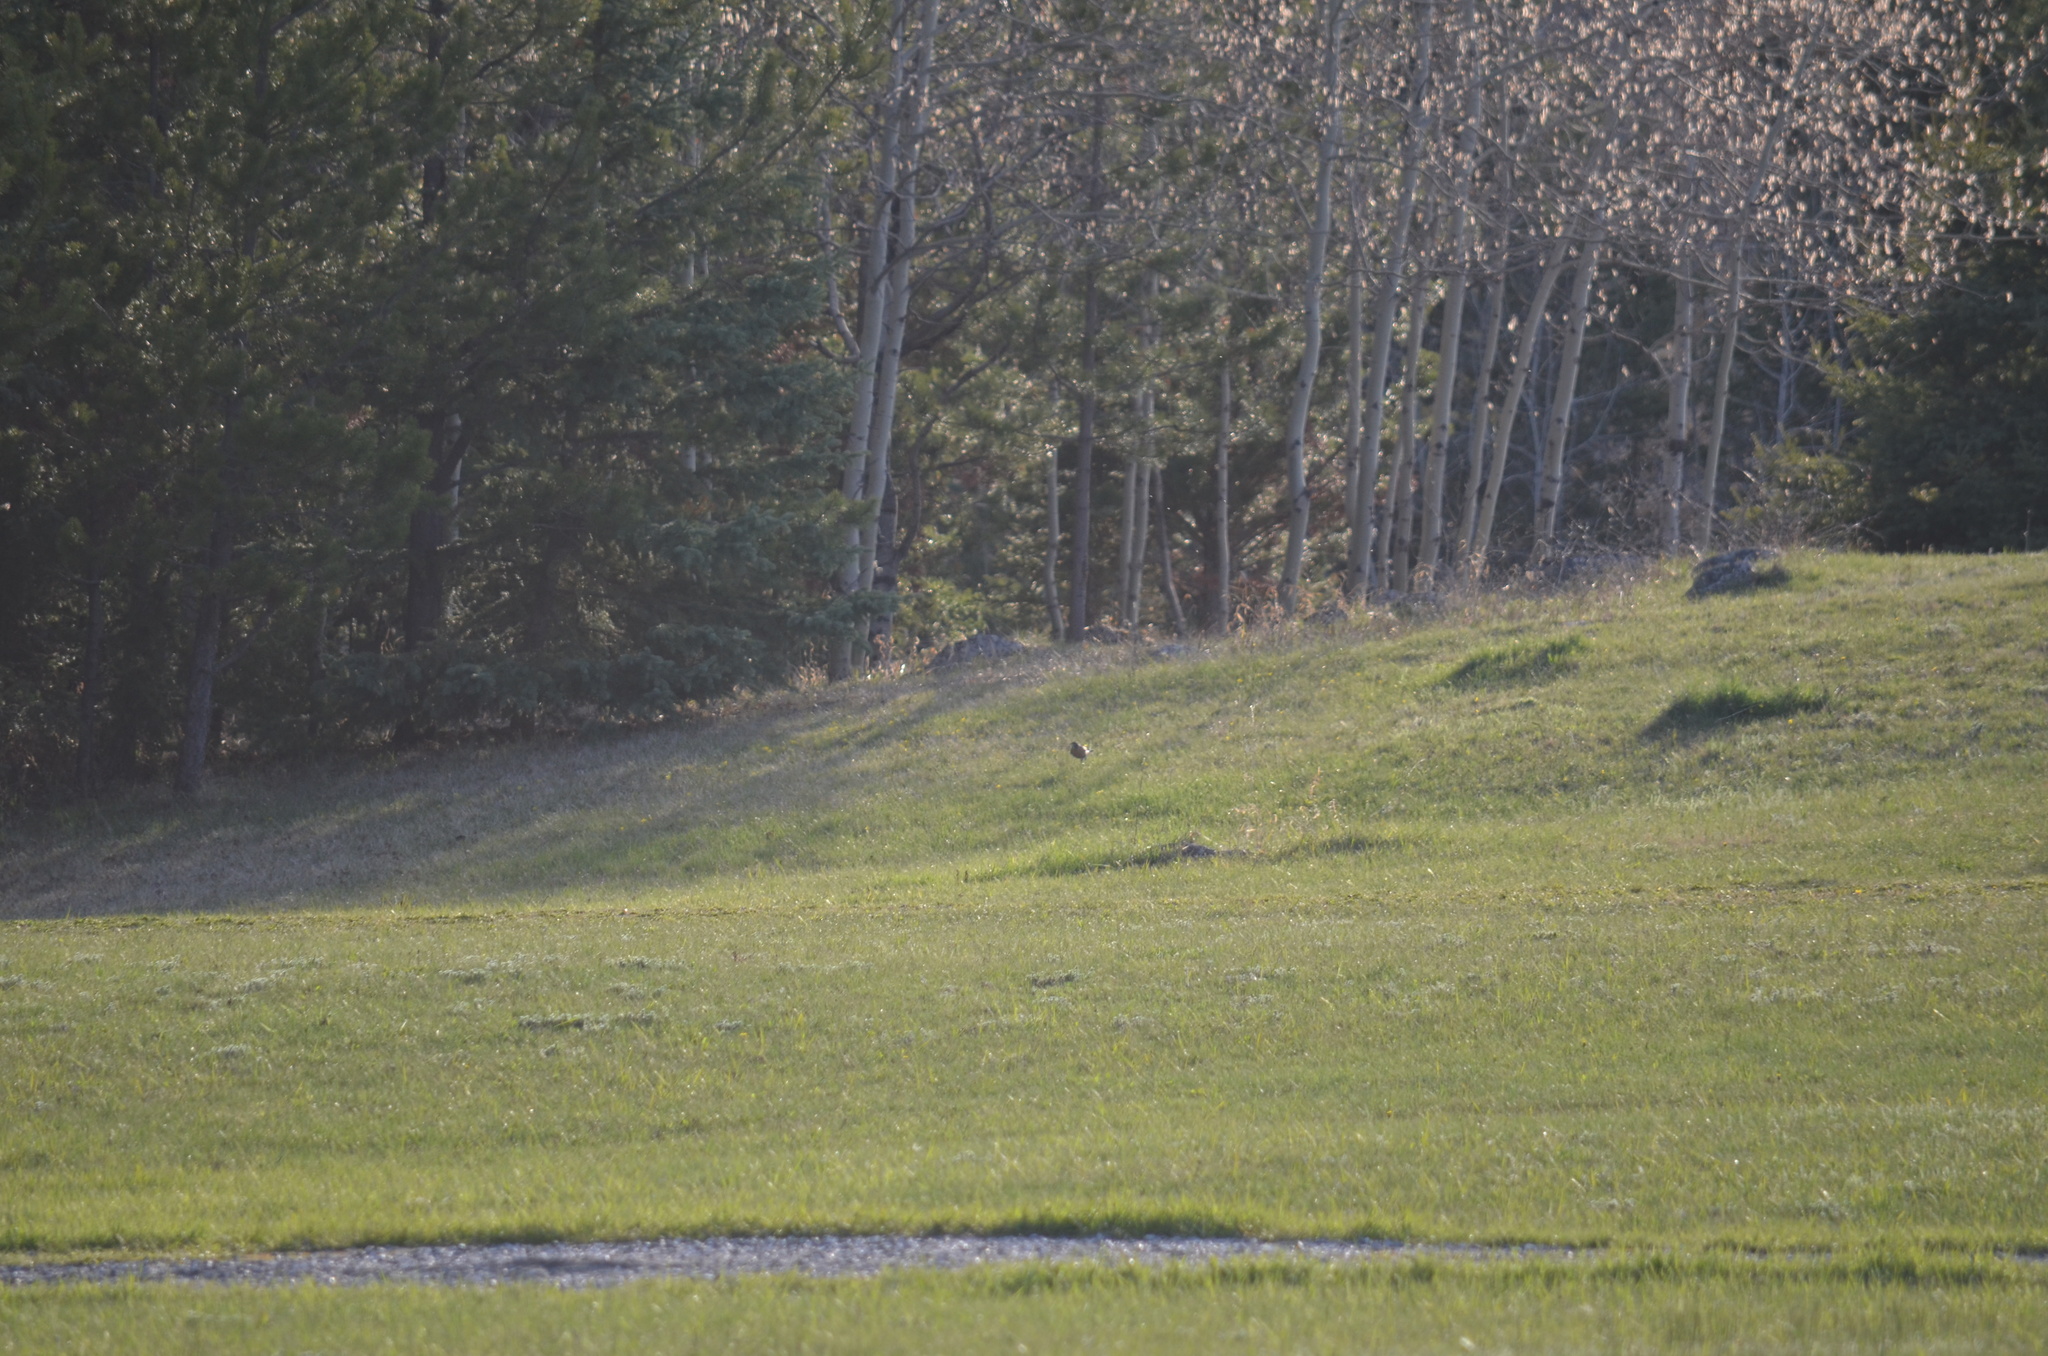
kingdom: Animalia
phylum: Chordata
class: Aves
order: Passeriformes
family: Turdidae
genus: Turdus
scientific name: Turdus migratorius
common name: American robin
